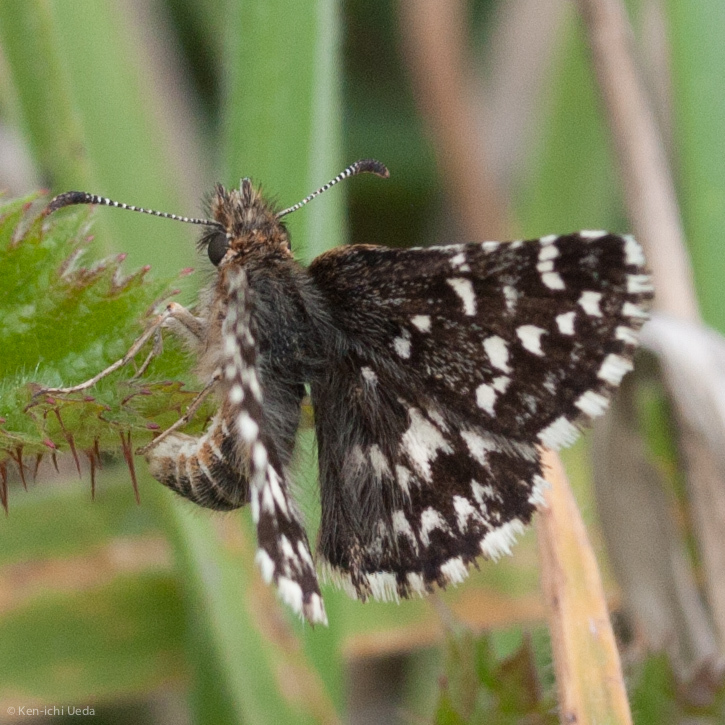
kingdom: Animalia
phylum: Arthropoda
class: Insecta
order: Lepidoptera
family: Hesperiidae
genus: Pyrgus
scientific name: Pyrgus ruralis
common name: Two-banded checkered-skipper
